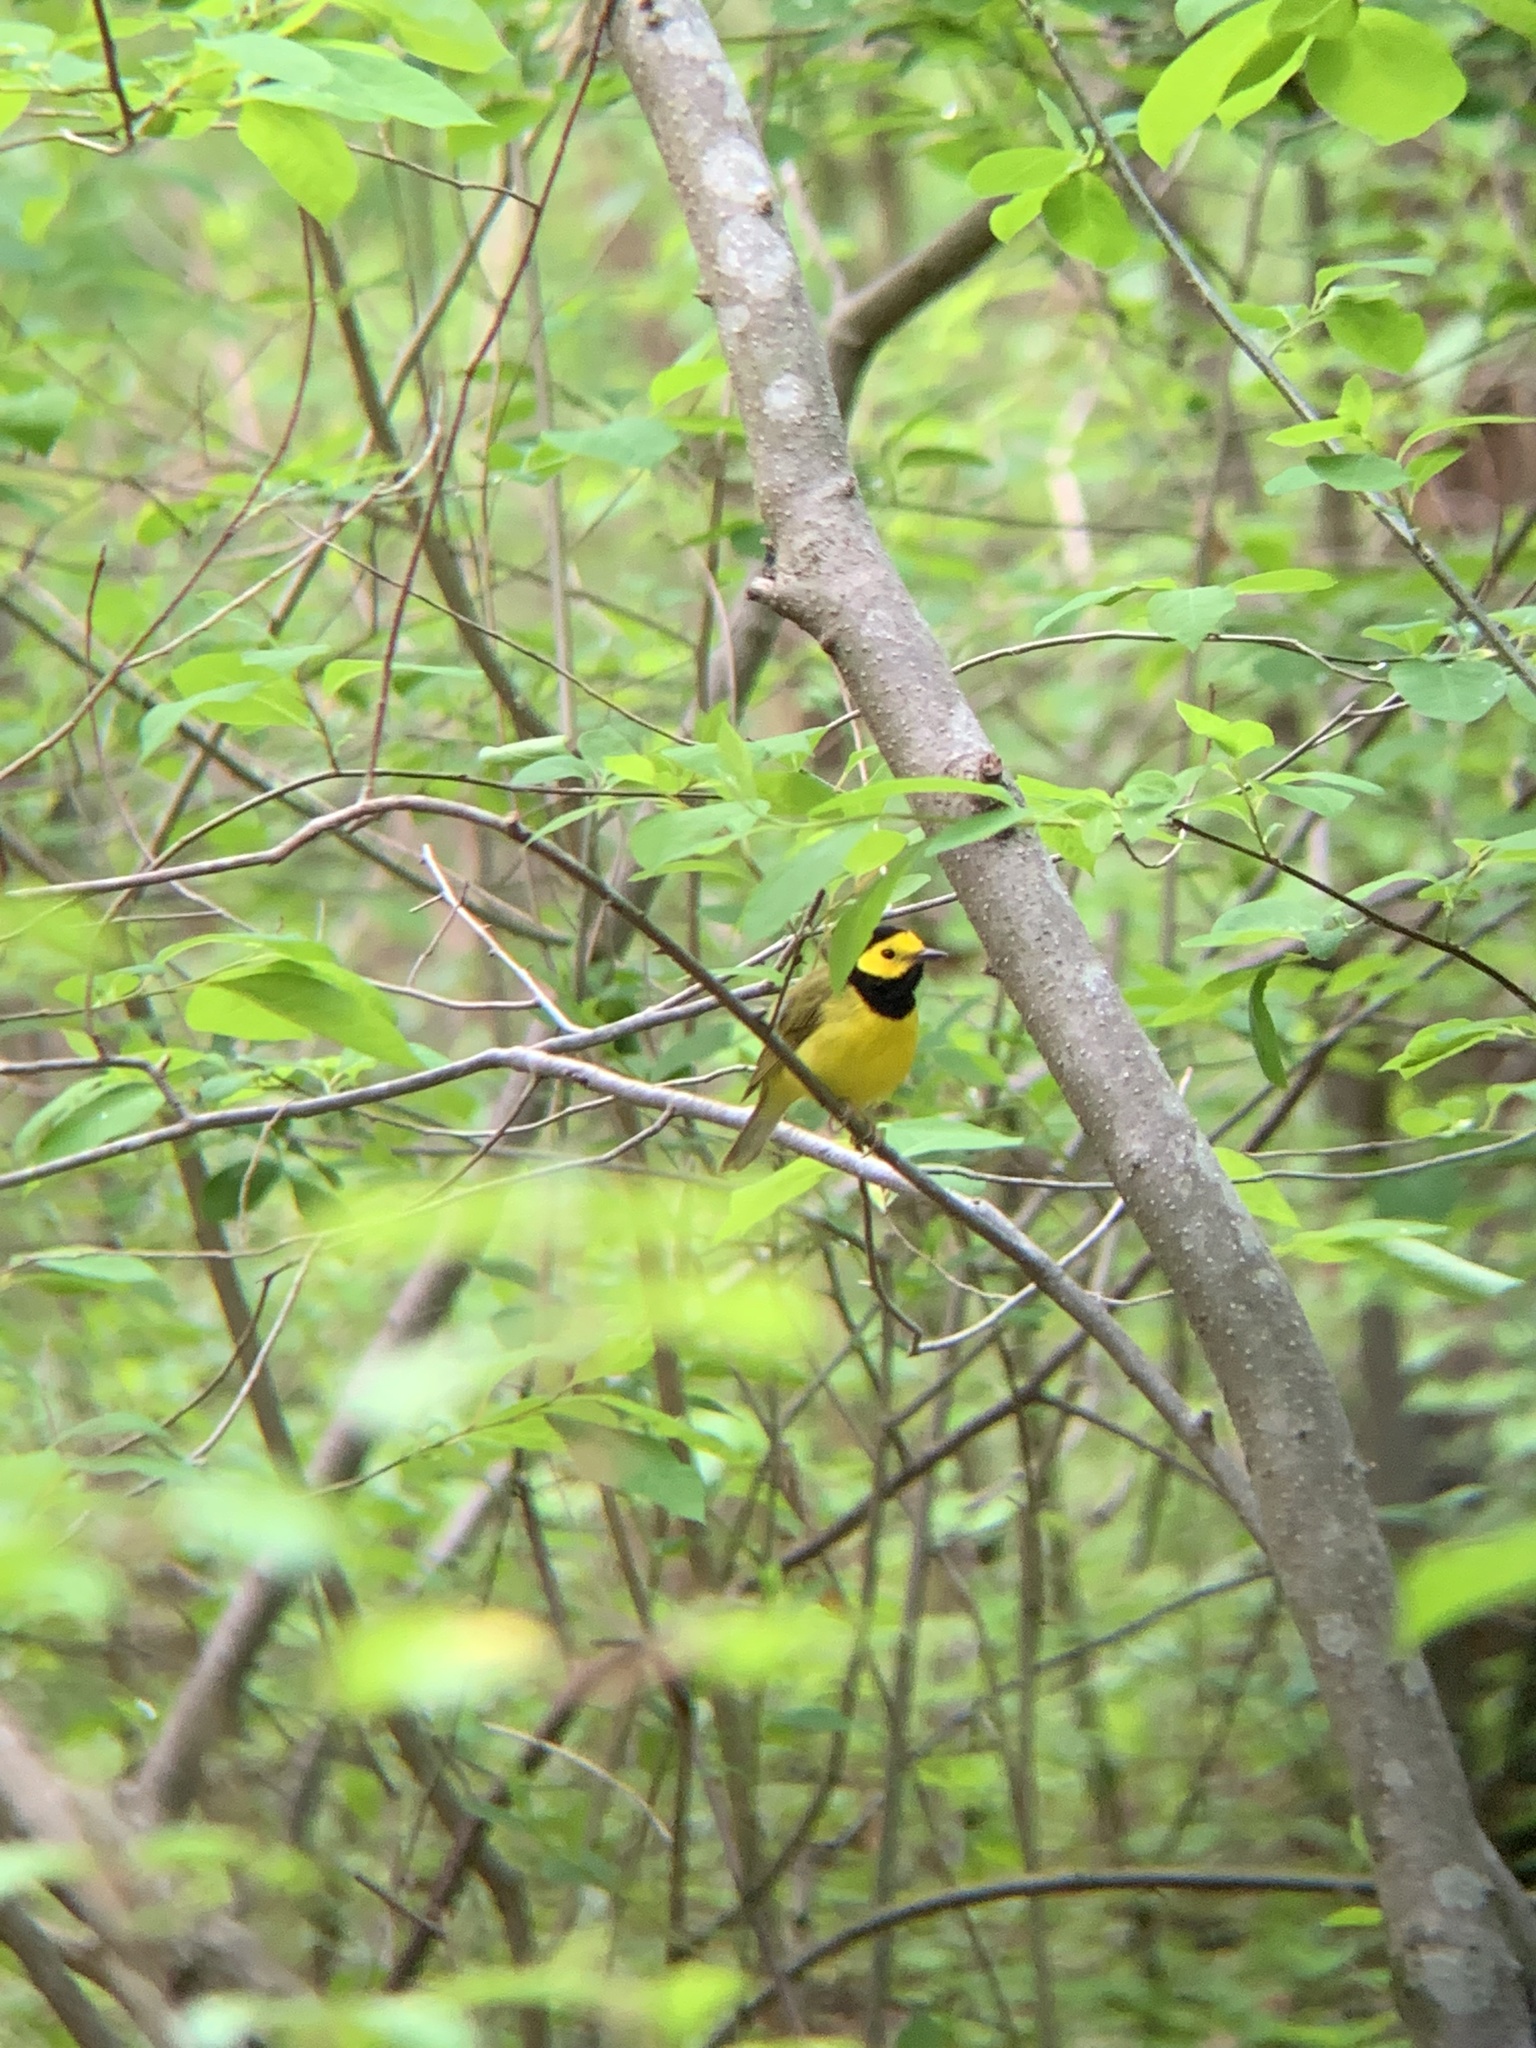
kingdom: Animalia
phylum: Chordata
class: Aves
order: Passeriformes
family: Parulidae
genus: Setophaga
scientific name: Setophaga citrina
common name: Hooded warbler
